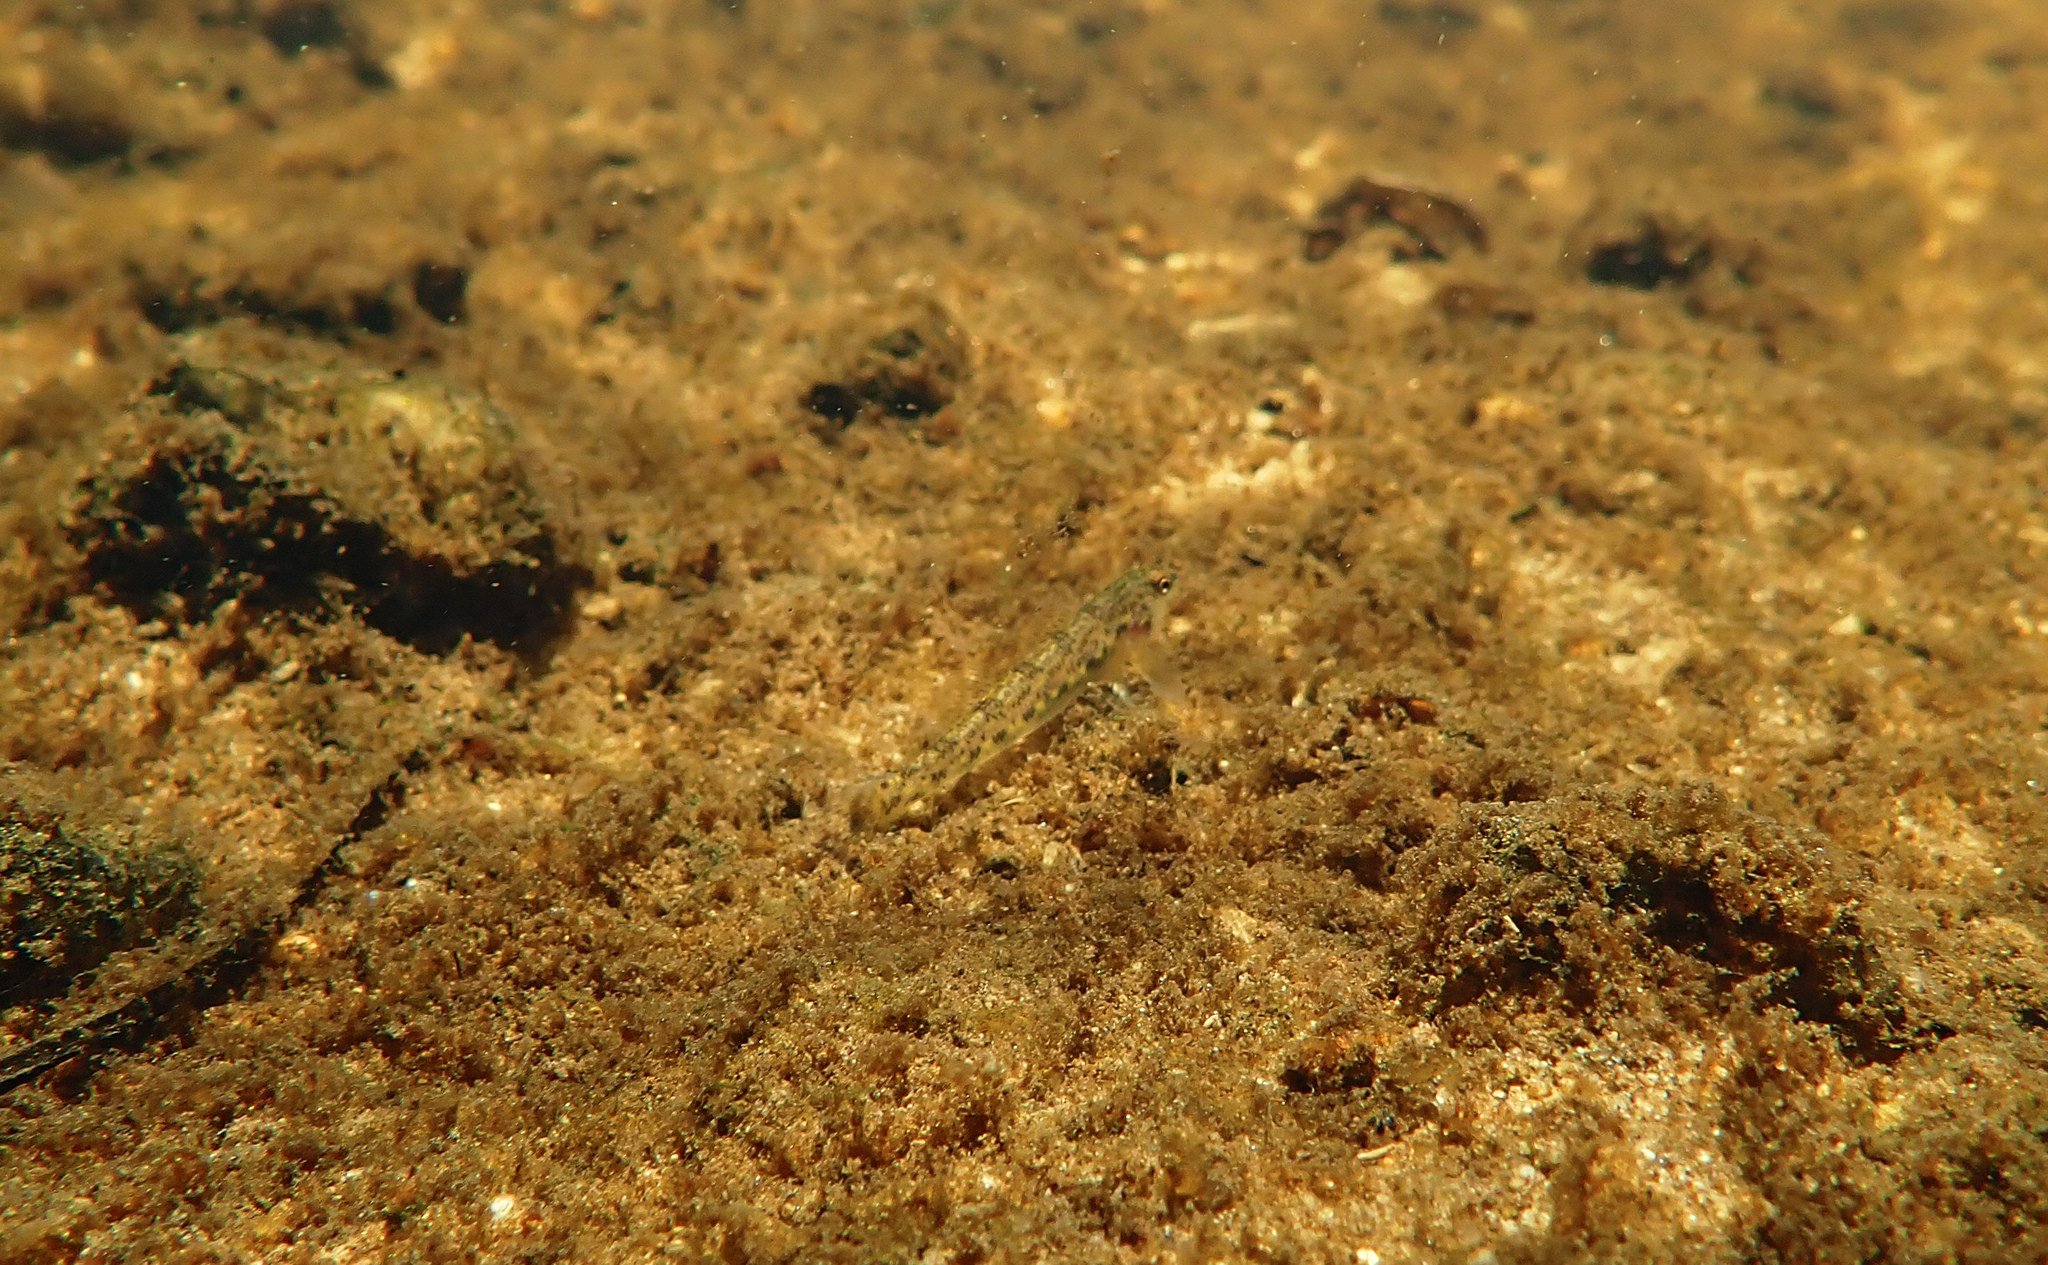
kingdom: Animalia
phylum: Chordata
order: Perciformes
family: Percidae
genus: Etheostoma
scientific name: Etheostoma olmstedi
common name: Tessellated darter
